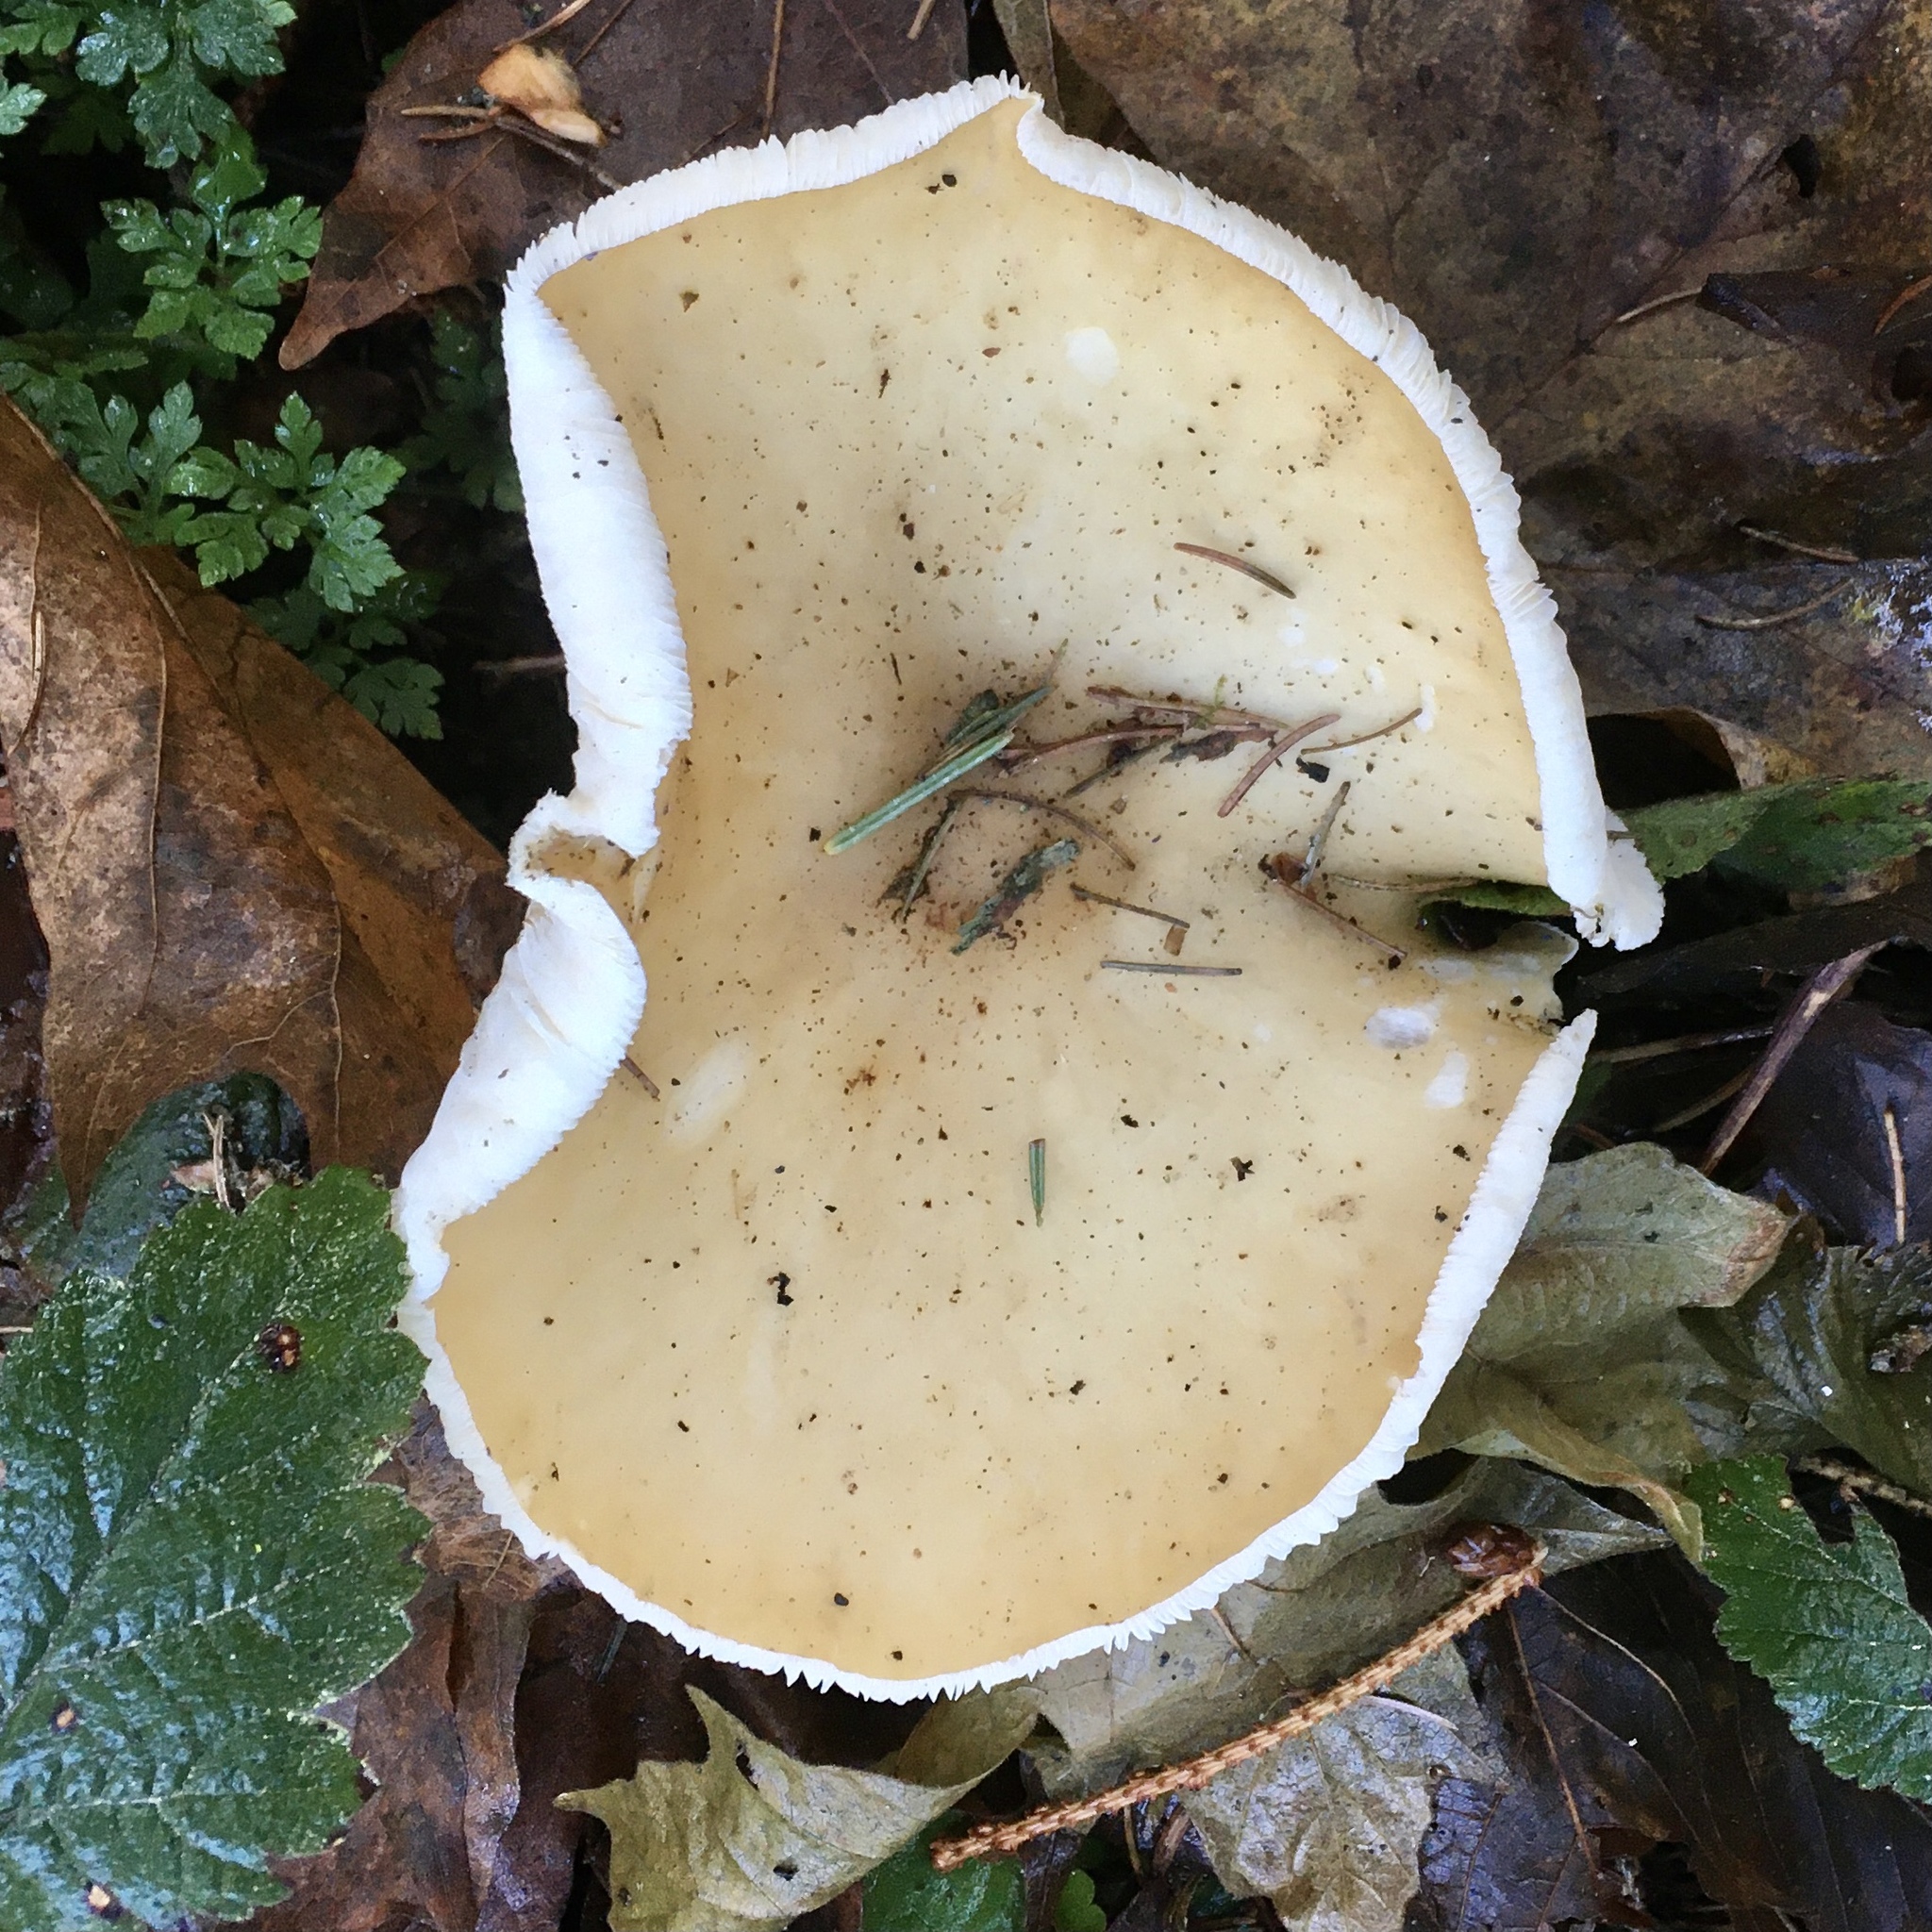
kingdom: Fungi
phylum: Basidiomycota
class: Agaricomycetes
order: Agaricales
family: Omphalotaceae
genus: Rhodocollybia
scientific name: Rhodocollybia butyracea
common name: Butter cap
